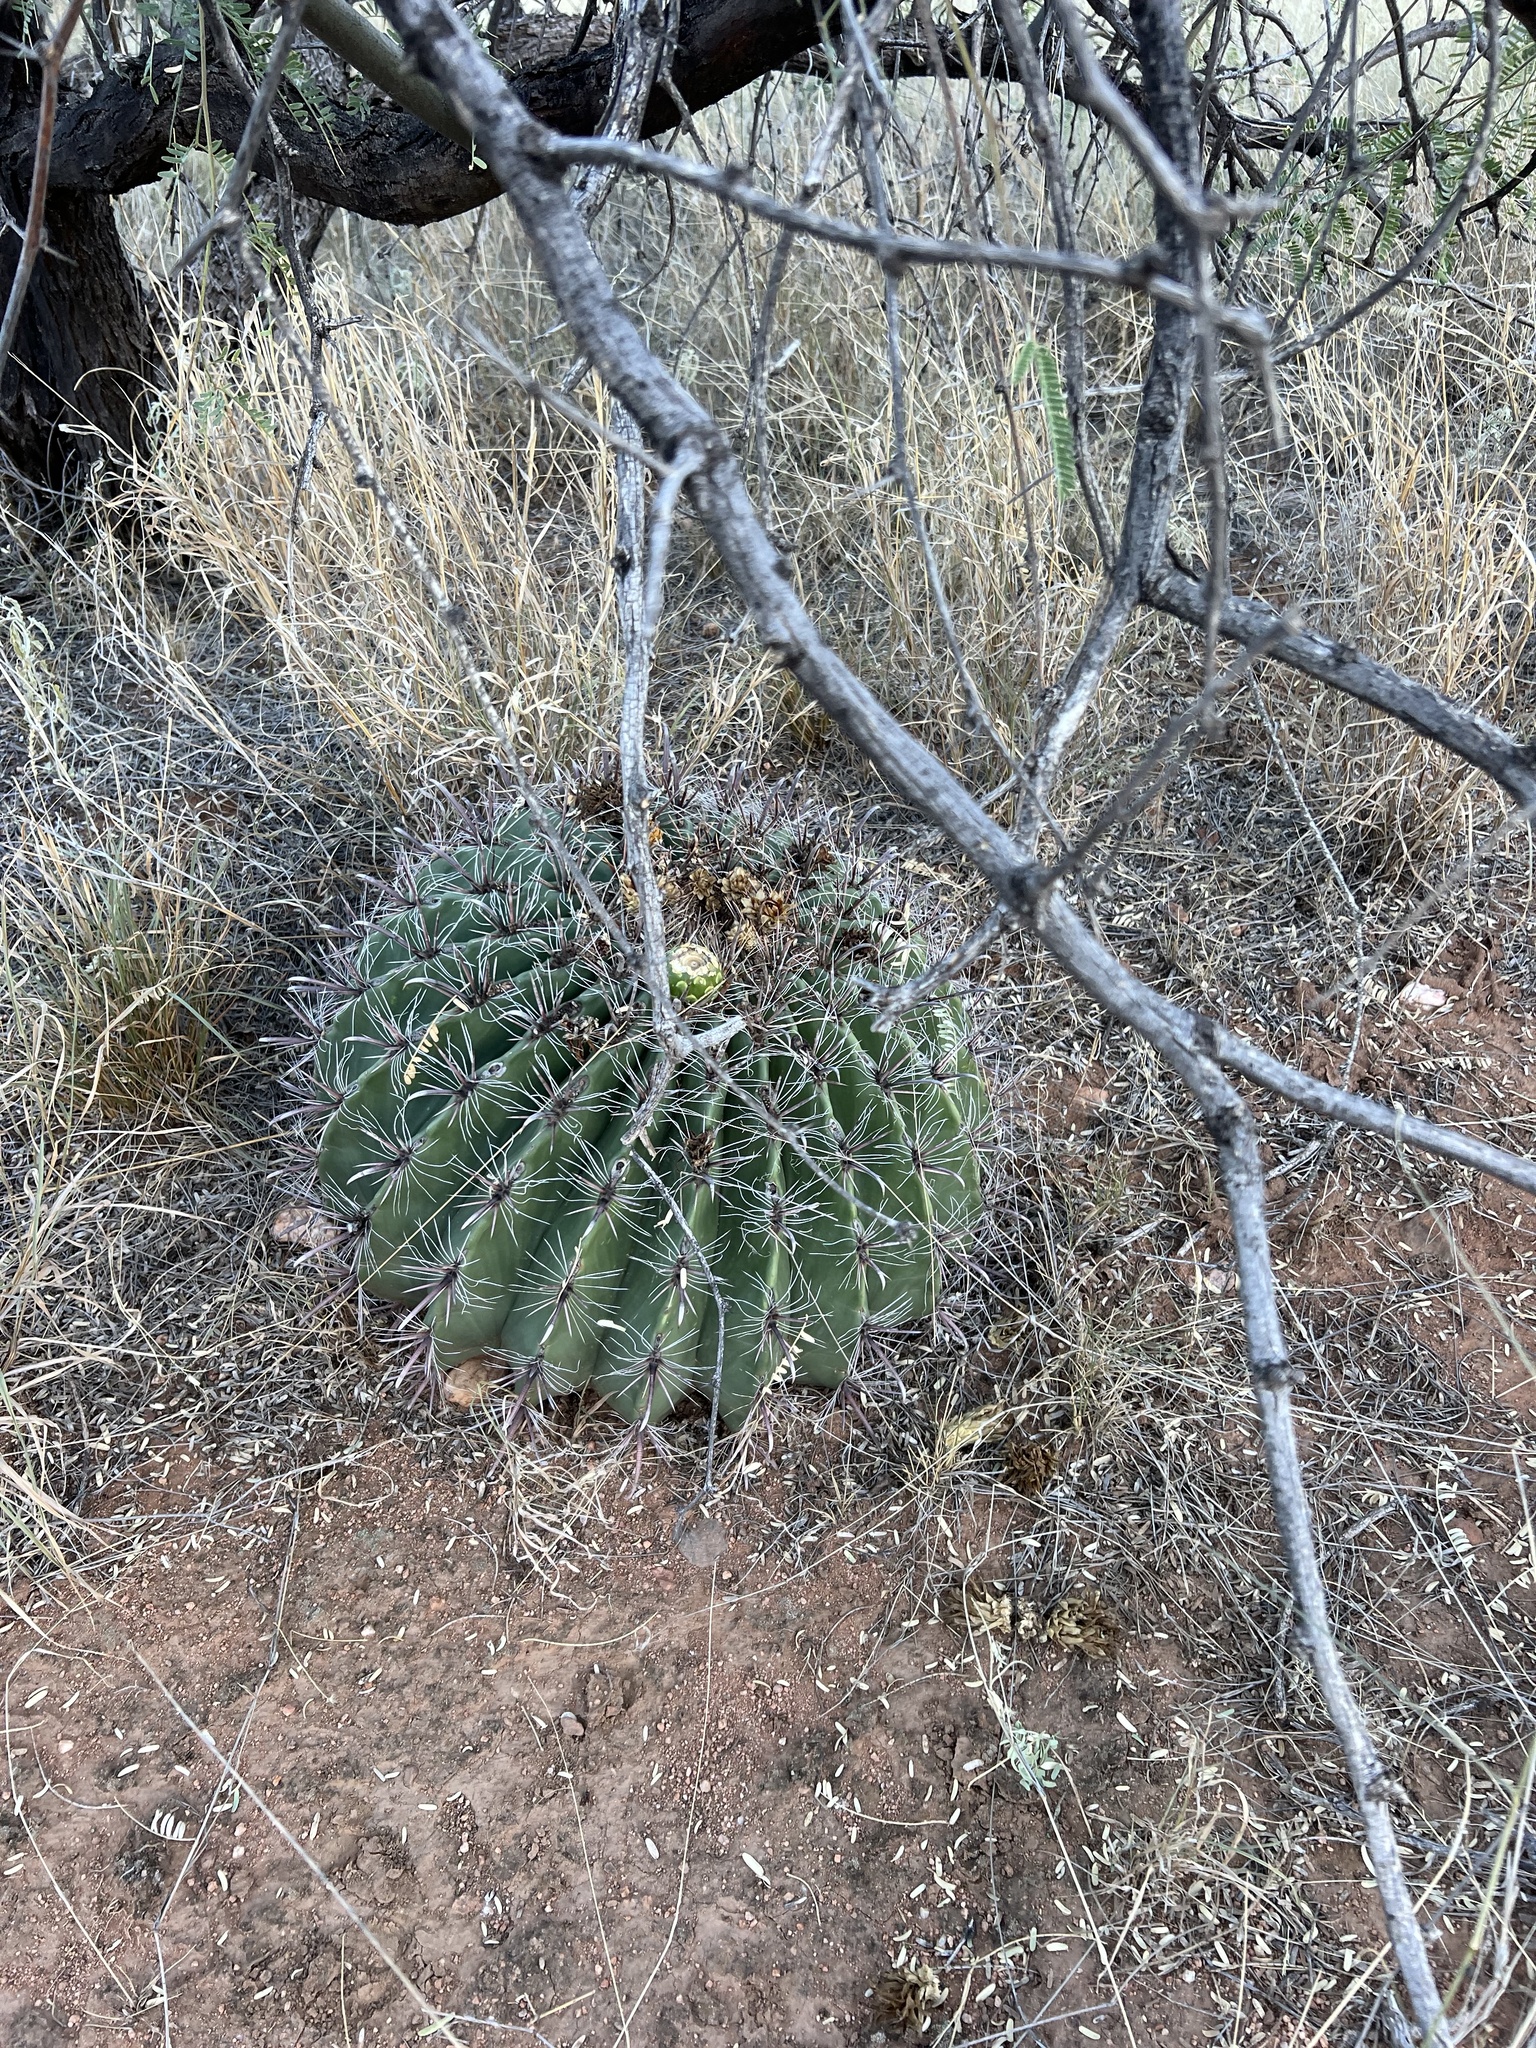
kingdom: Plantae
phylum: Tracheophyta
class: Magnoliopsida
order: Caryophyllales
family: Cactaceae
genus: Ferocactus
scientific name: Ferocactus wislizeni
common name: Candy barrel cactus
